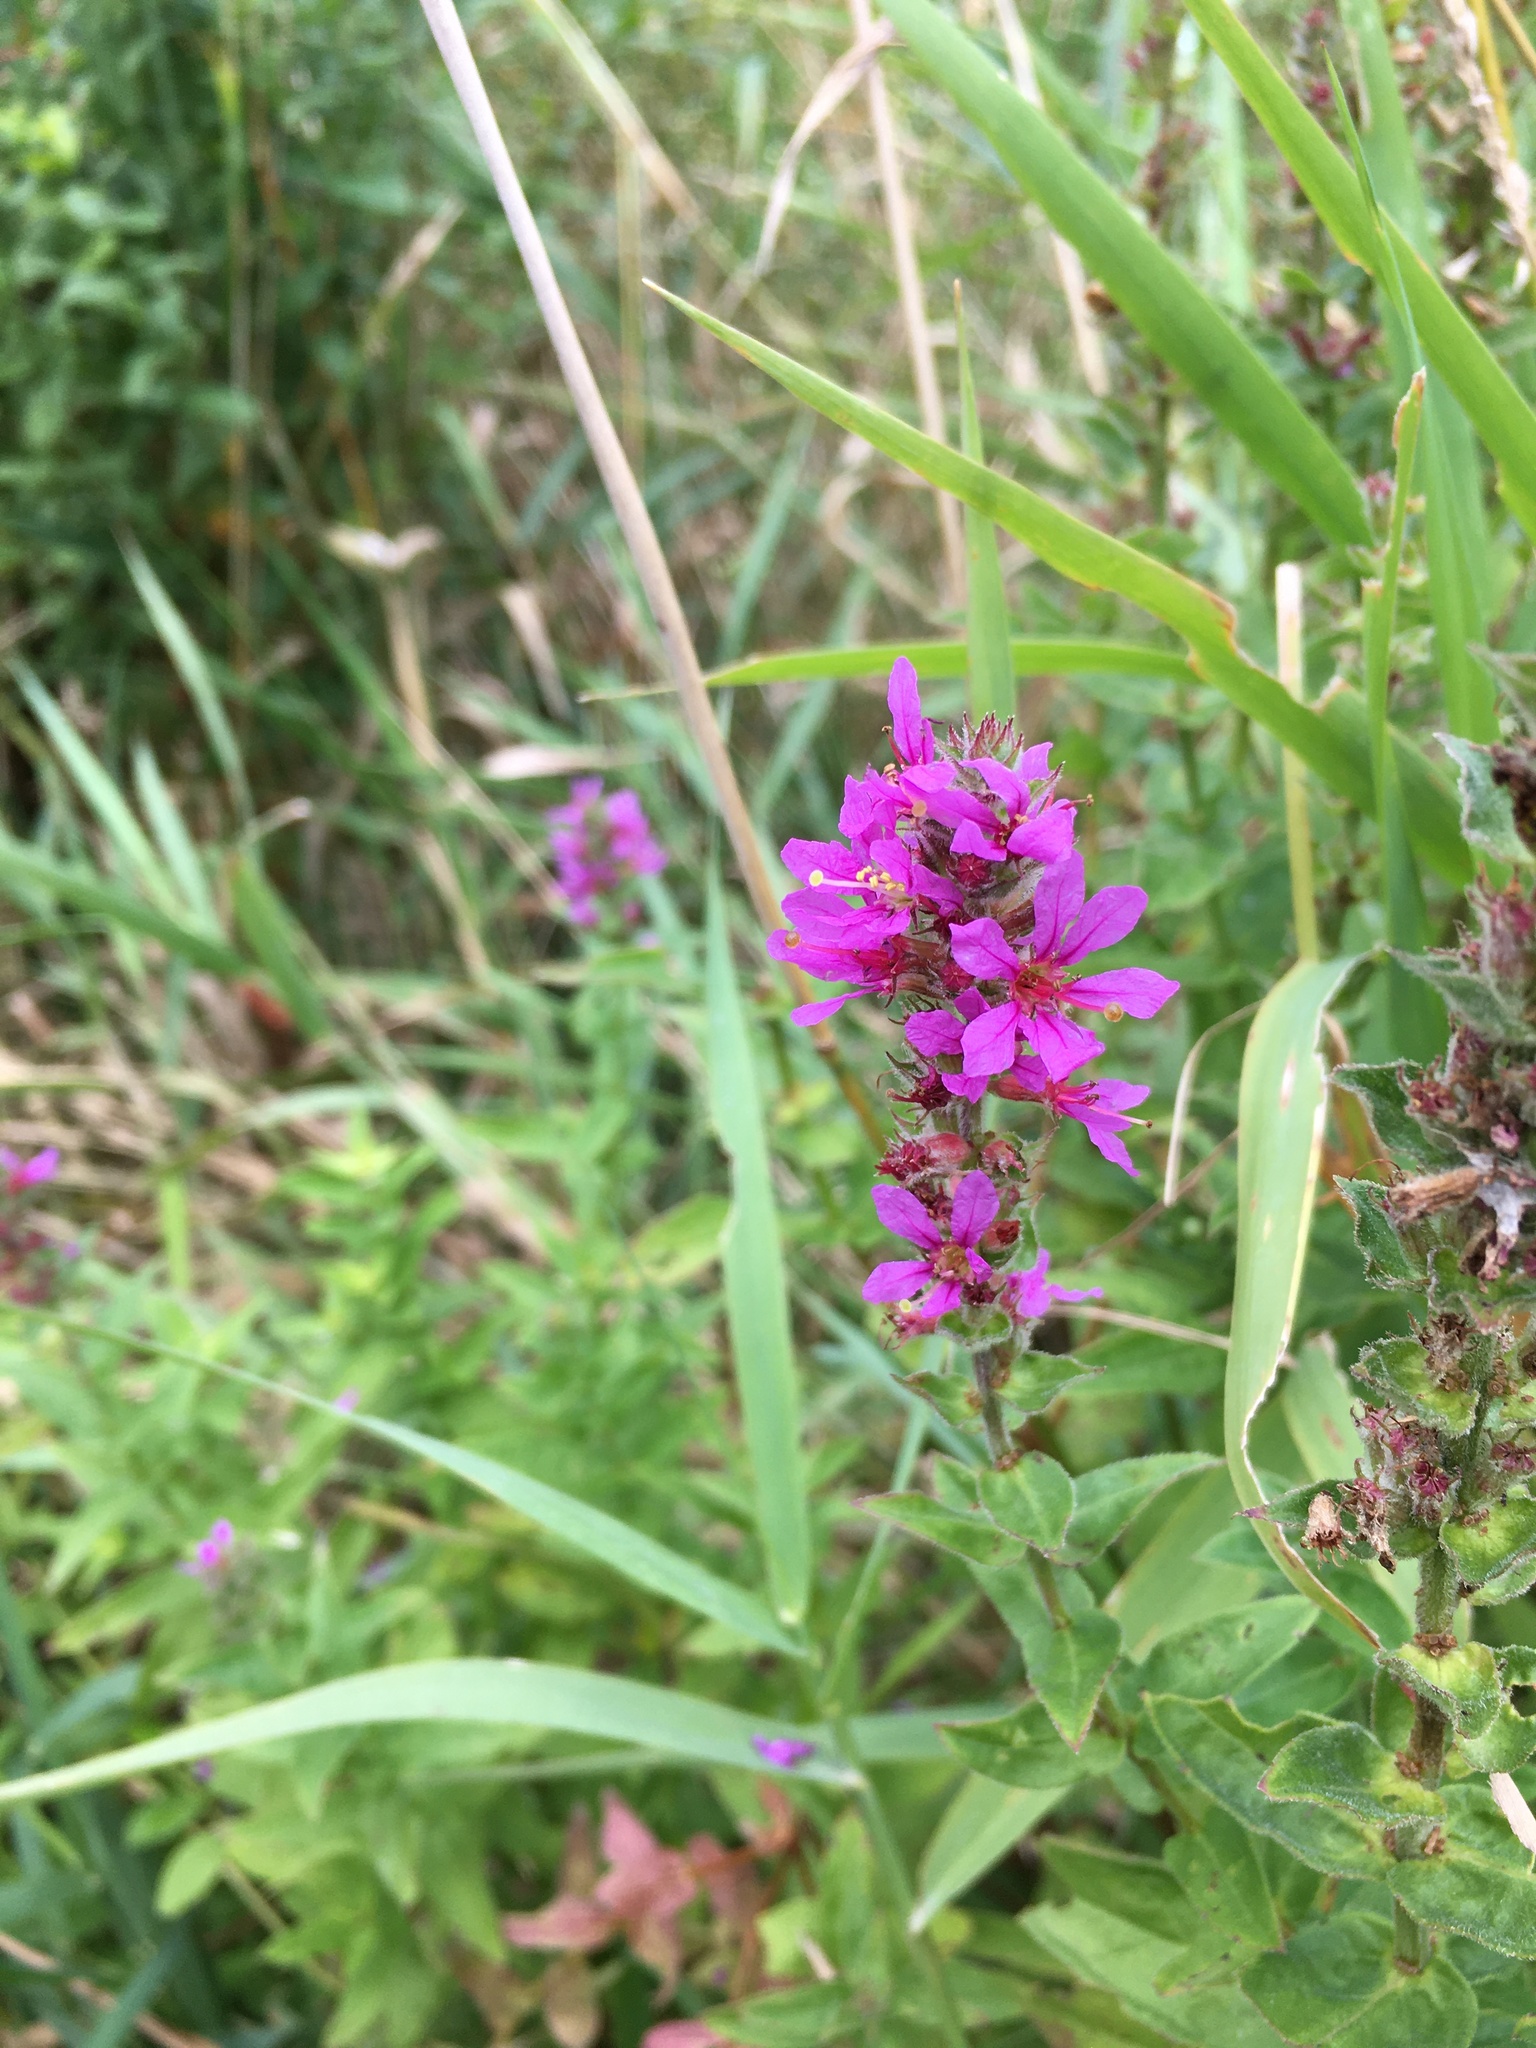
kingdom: Plantae
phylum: Tracheophyta
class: Magnoliopsida
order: Myrtales
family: Lythraceae
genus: Lythrum
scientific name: Lythrum salicaria
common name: Purple loosestrife
